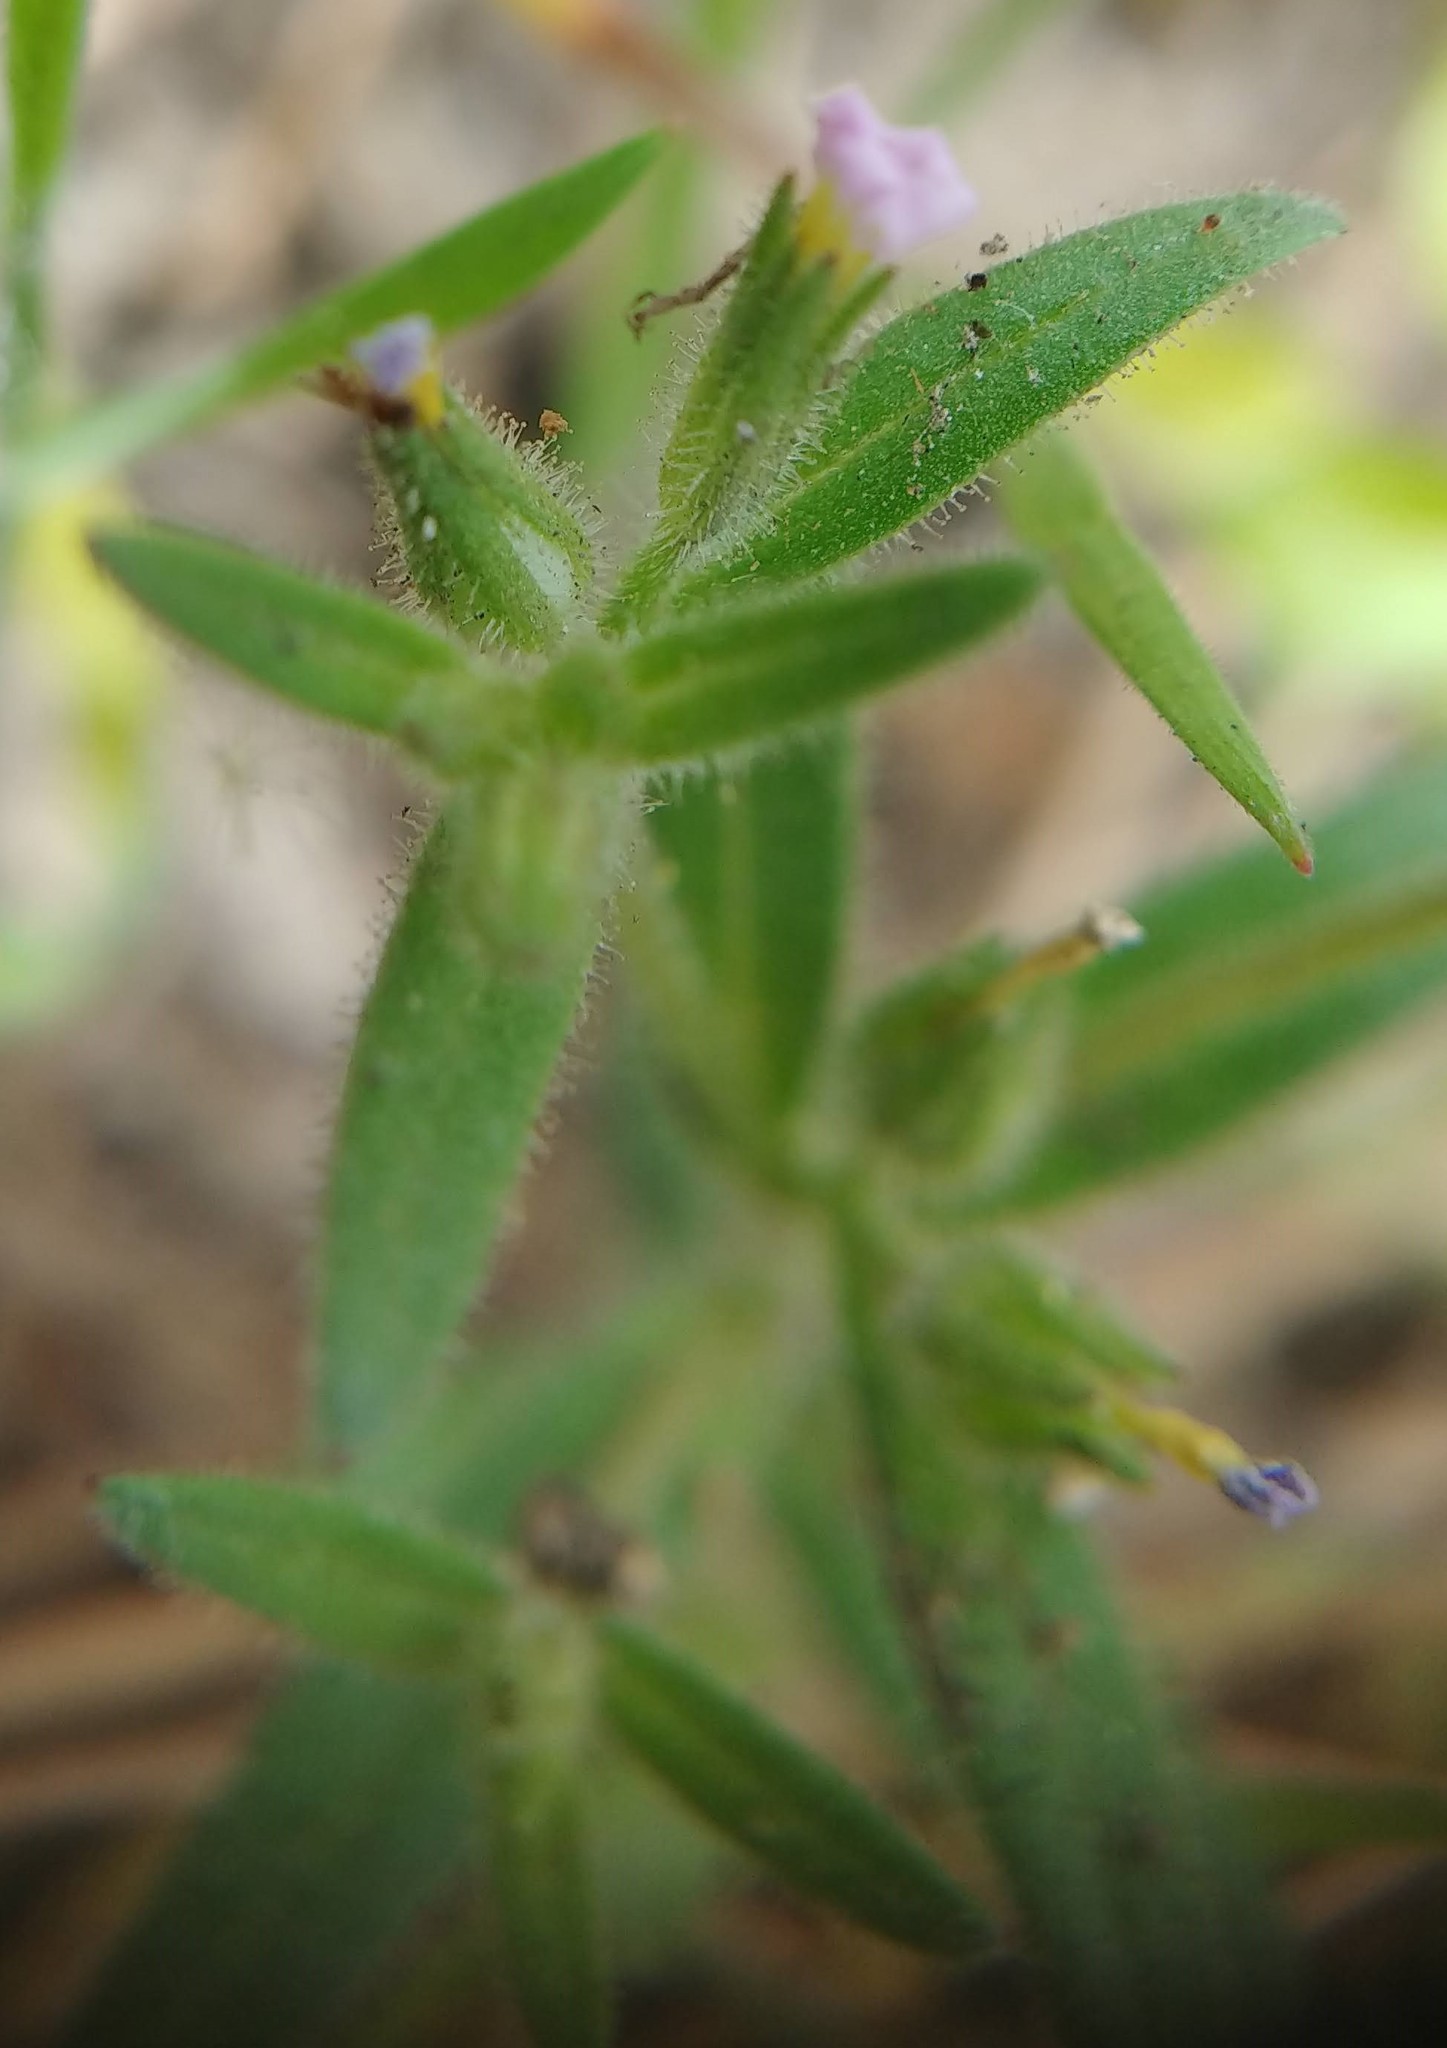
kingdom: Plantae
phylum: Tracheophyta
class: Magnoliopsida
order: Ericales
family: Polemoniaceae
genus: Phlox
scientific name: Phlox gracilis
